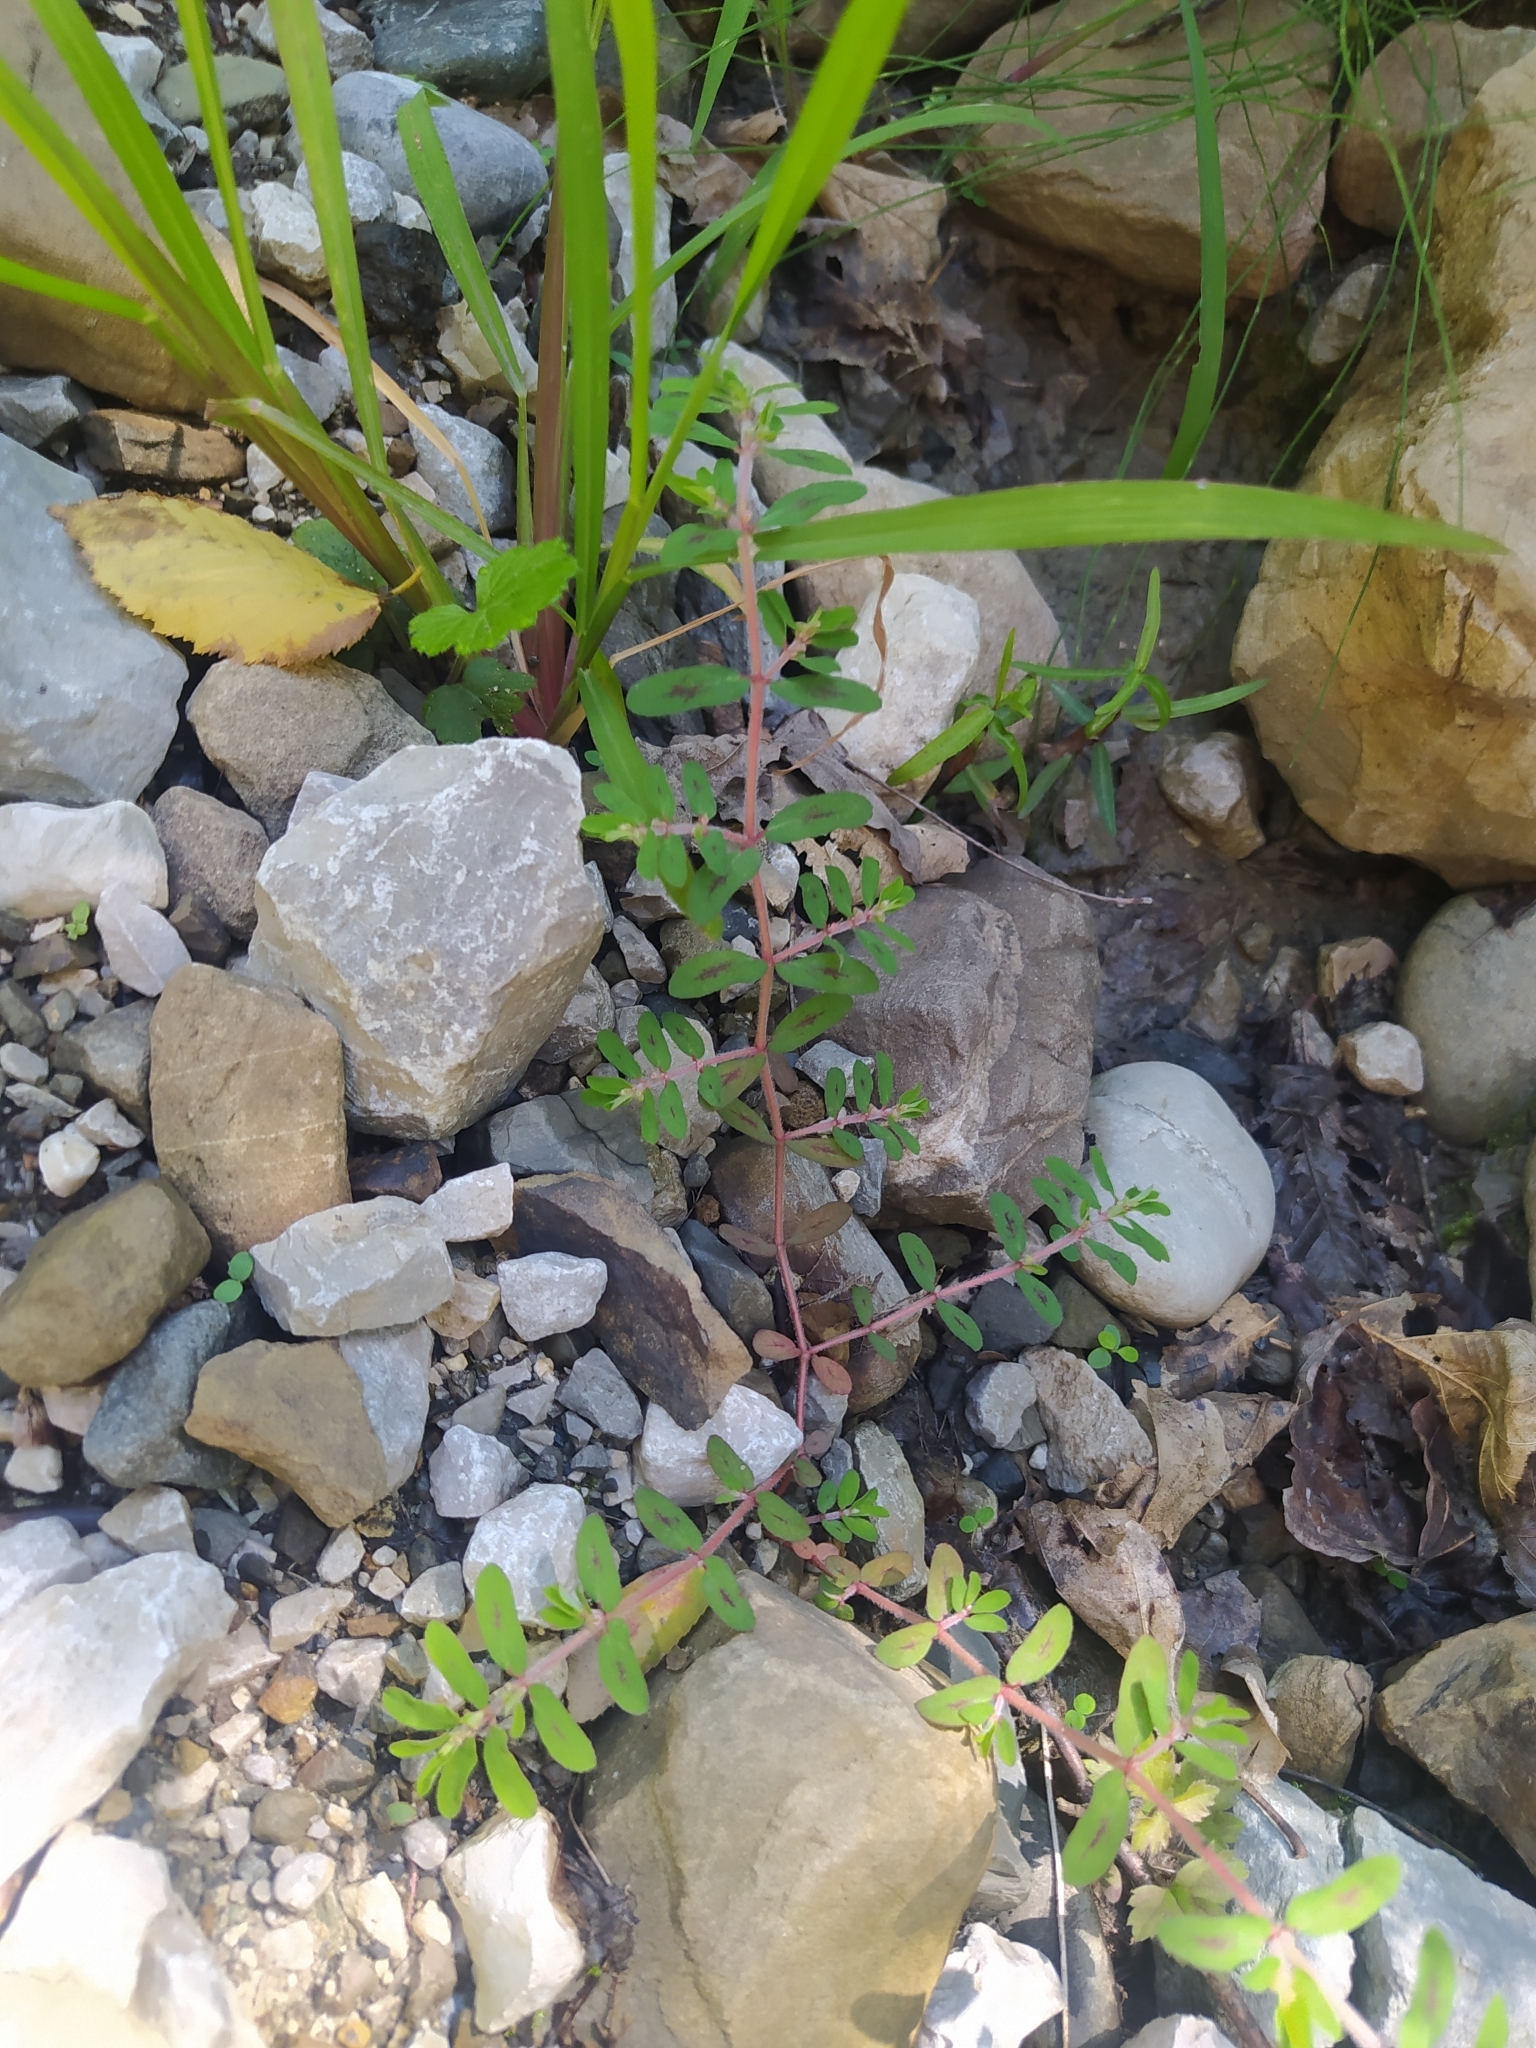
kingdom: Plantae
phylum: Tracheophyta
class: Magnoliopsida
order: Malpighiales
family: Euphorbiaceae
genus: Euphorbia
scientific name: Euphorbia maculata
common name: Spotted spurge
